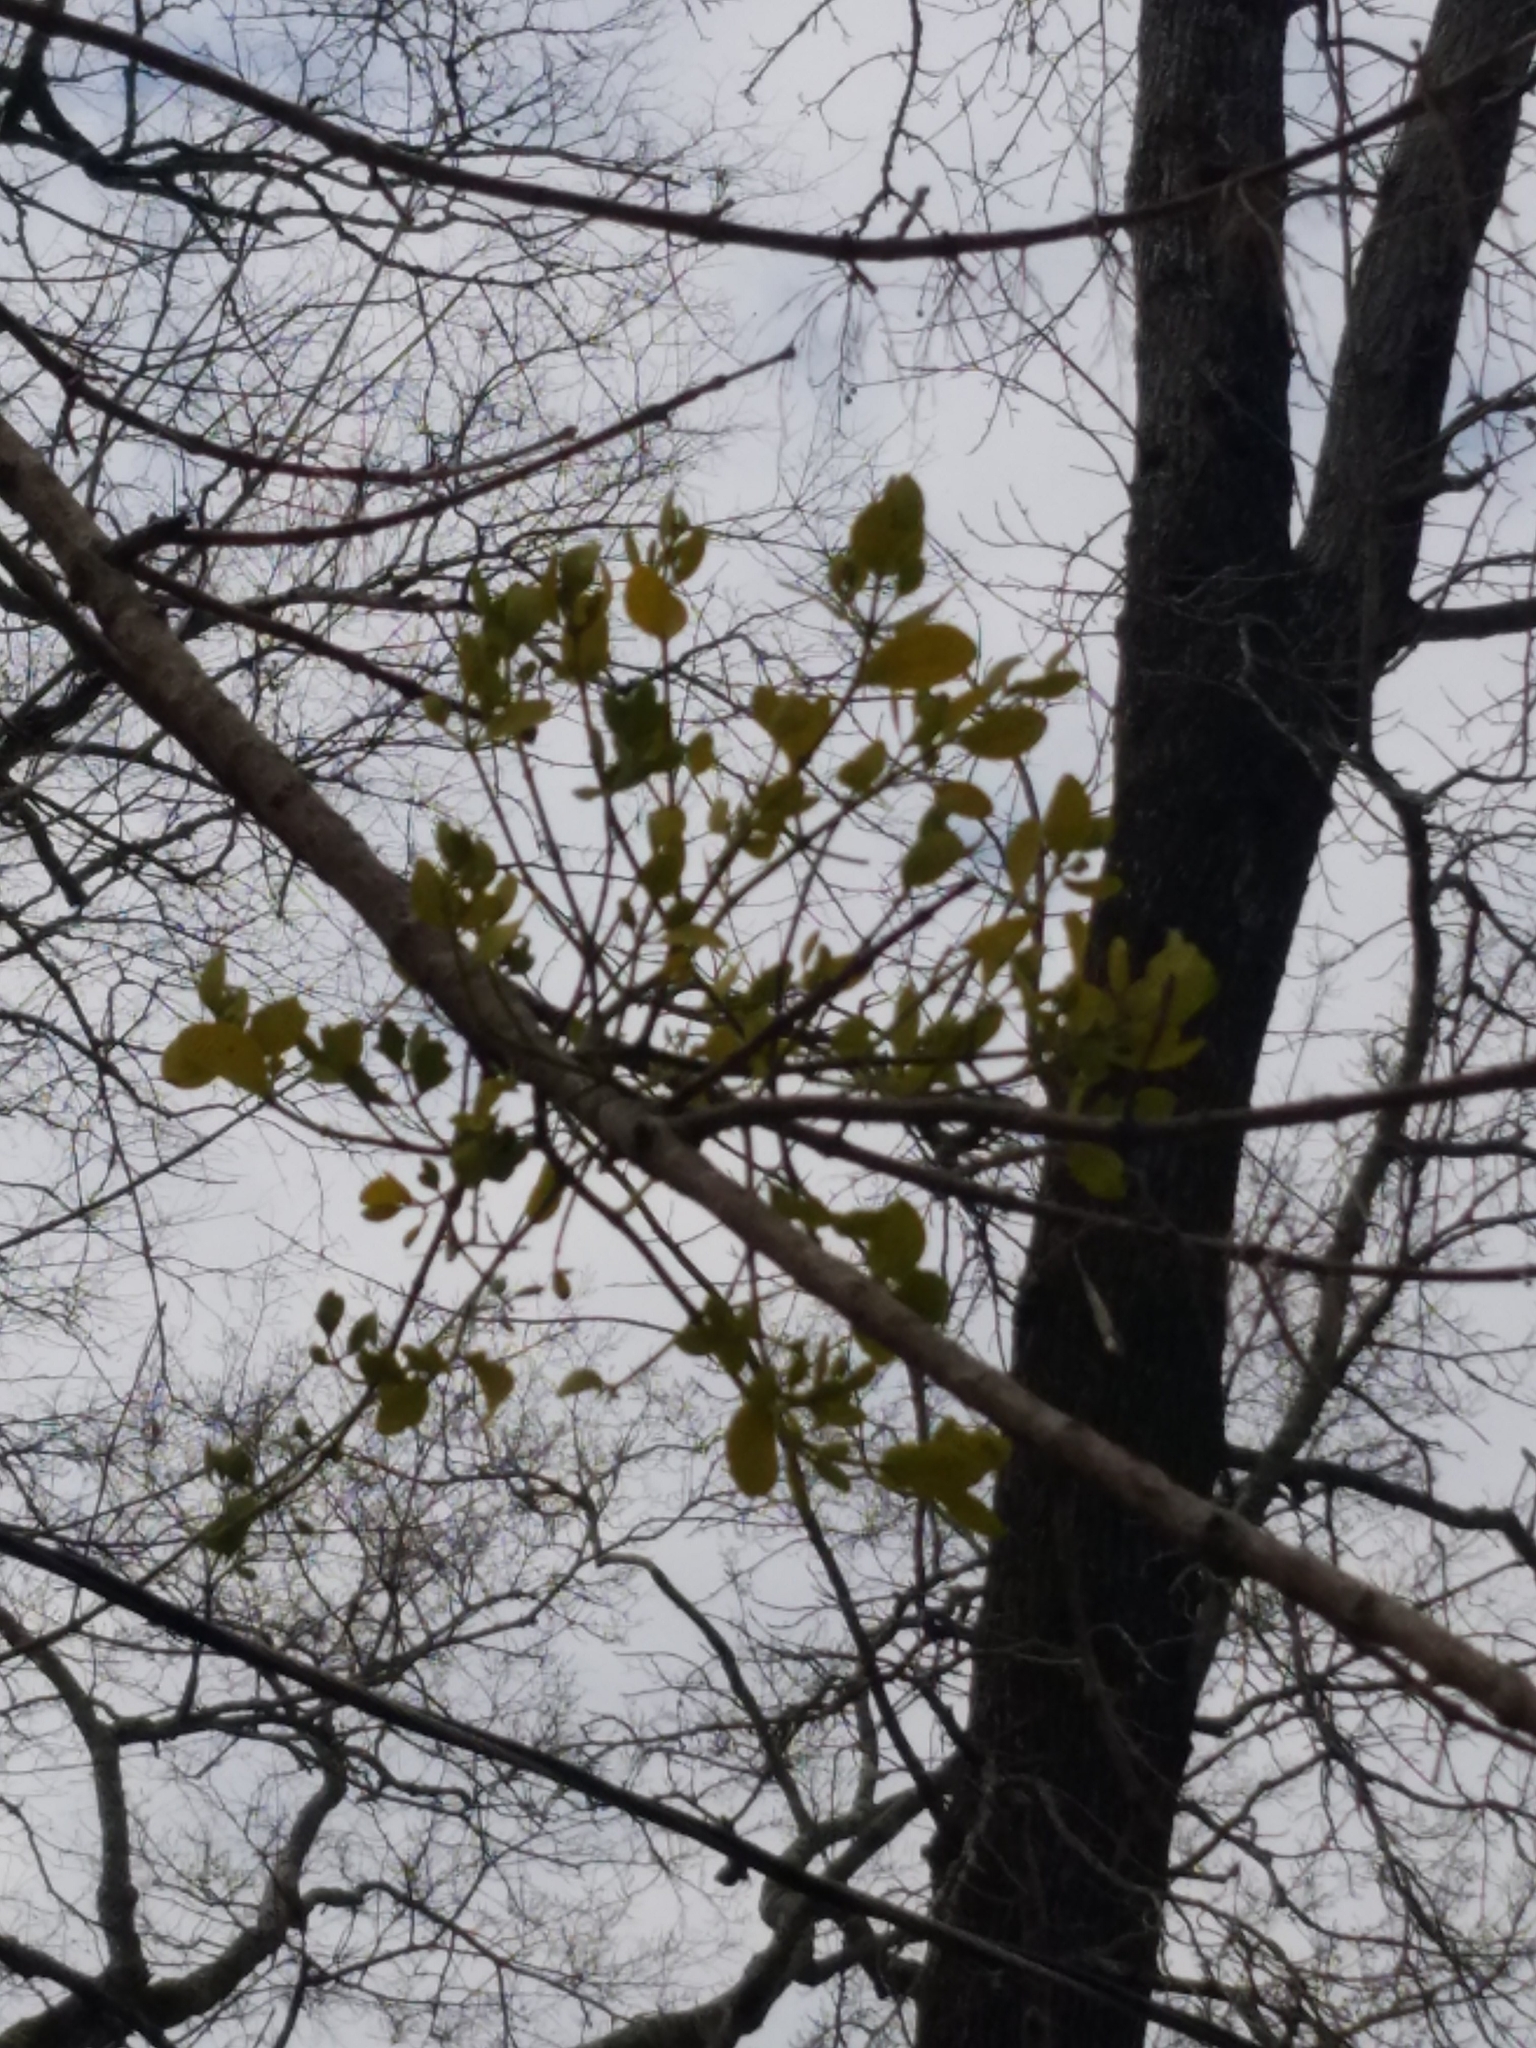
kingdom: Plantae
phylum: Tracheophyta
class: Magnoliopsida
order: Santalales
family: Viscaceae
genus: Phoradendron
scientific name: Phoradendron leucarpum
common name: Pacific mistletoe
